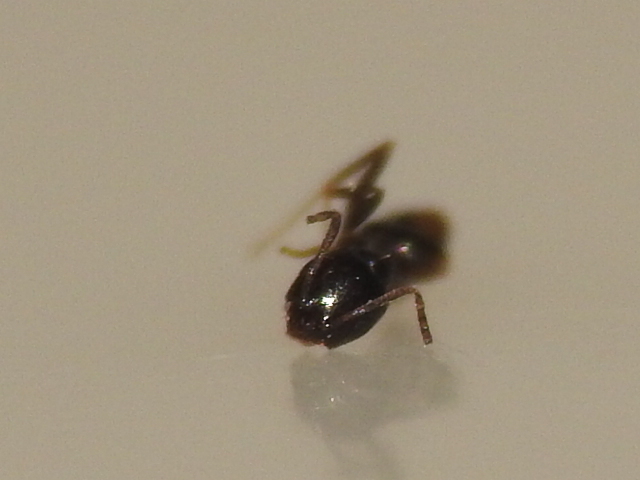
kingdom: Animalia
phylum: Arthropoda
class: Insecta
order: Hymenoptera
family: Formicidae
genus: Brachymyrmex
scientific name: Brachymyrmex patagonicus
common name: Dark rover ant
